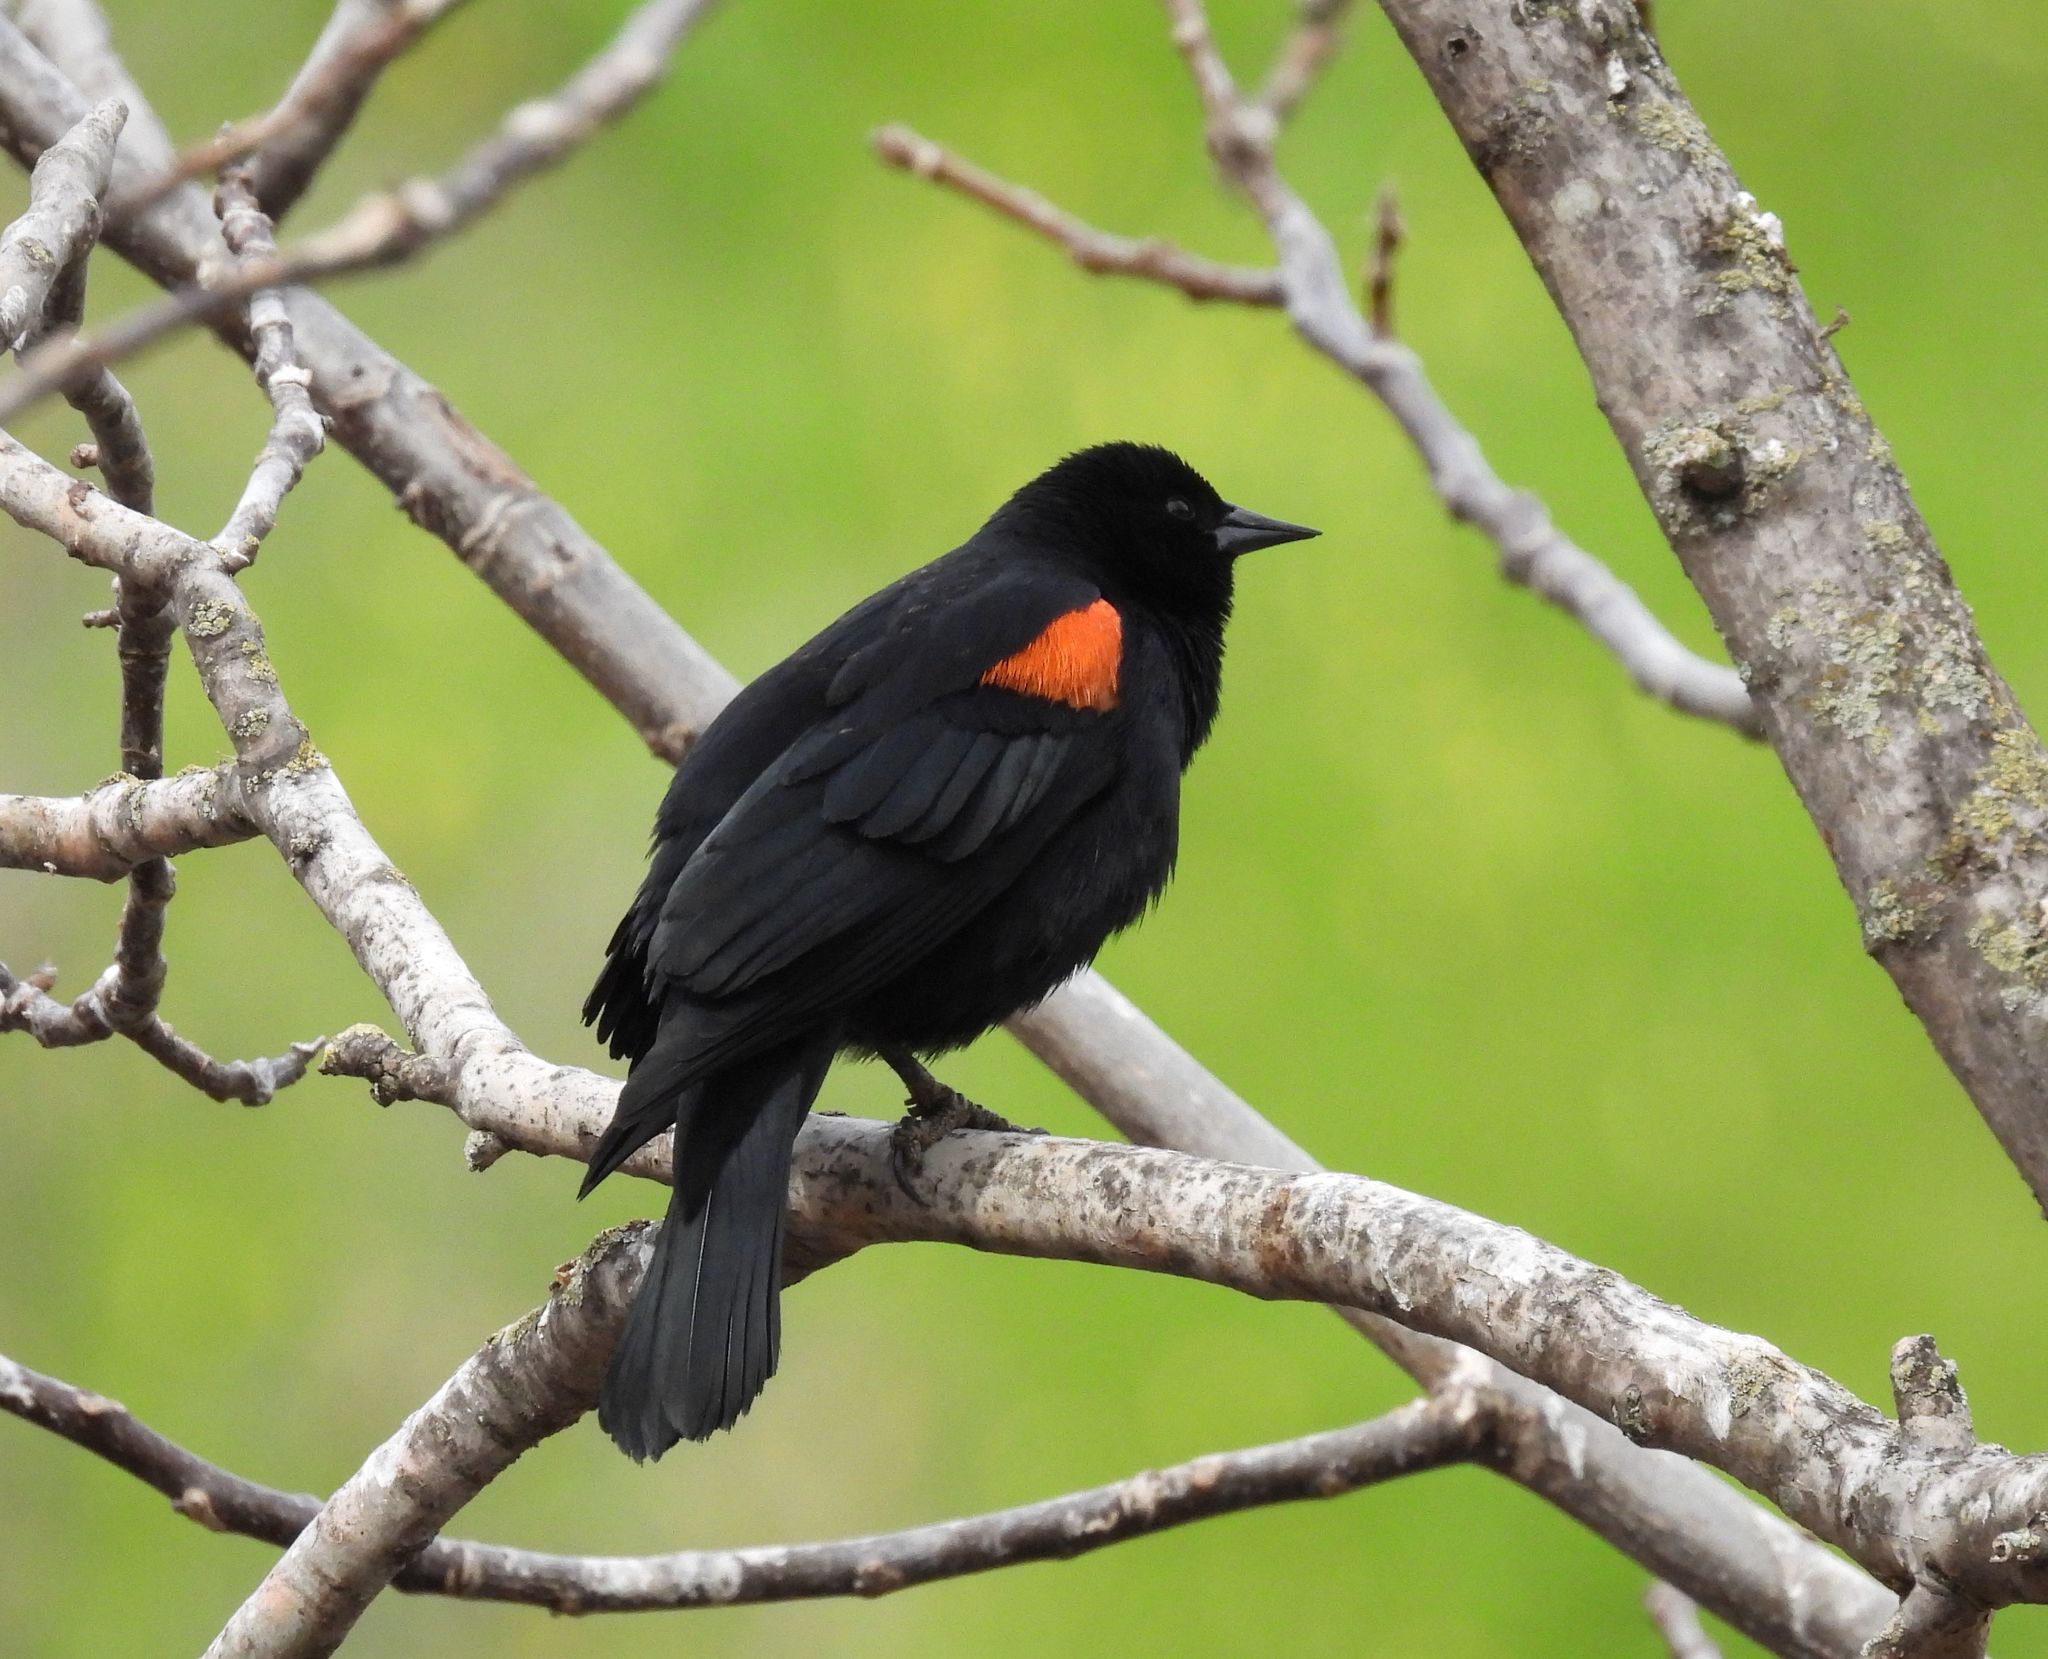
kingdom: Animalia
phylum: Chordata
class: Aves
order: Passeriformes
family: Icteridae
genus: Agelaius
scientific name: Agelaius phoeniceus
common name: Red-winged blackbird
